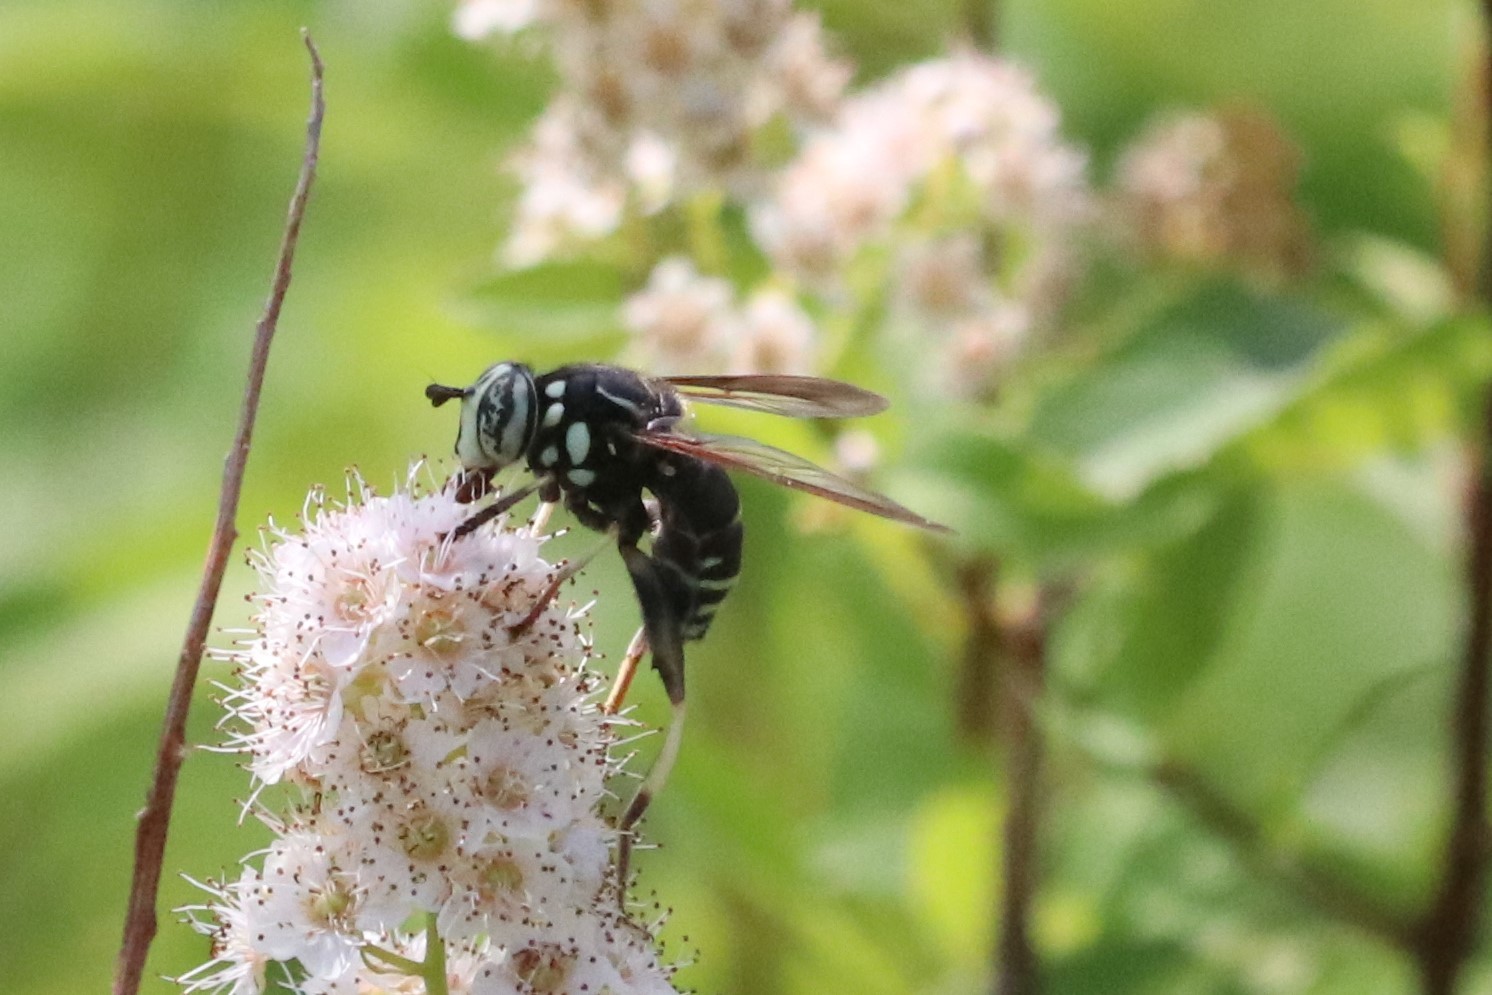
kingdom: Animalia
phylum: Arthropoda
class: Insecta
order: Diptera
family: Syrphidae
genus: Spilomyia
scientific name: Spilomyia fusca
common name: Bald-faced hornet fly
